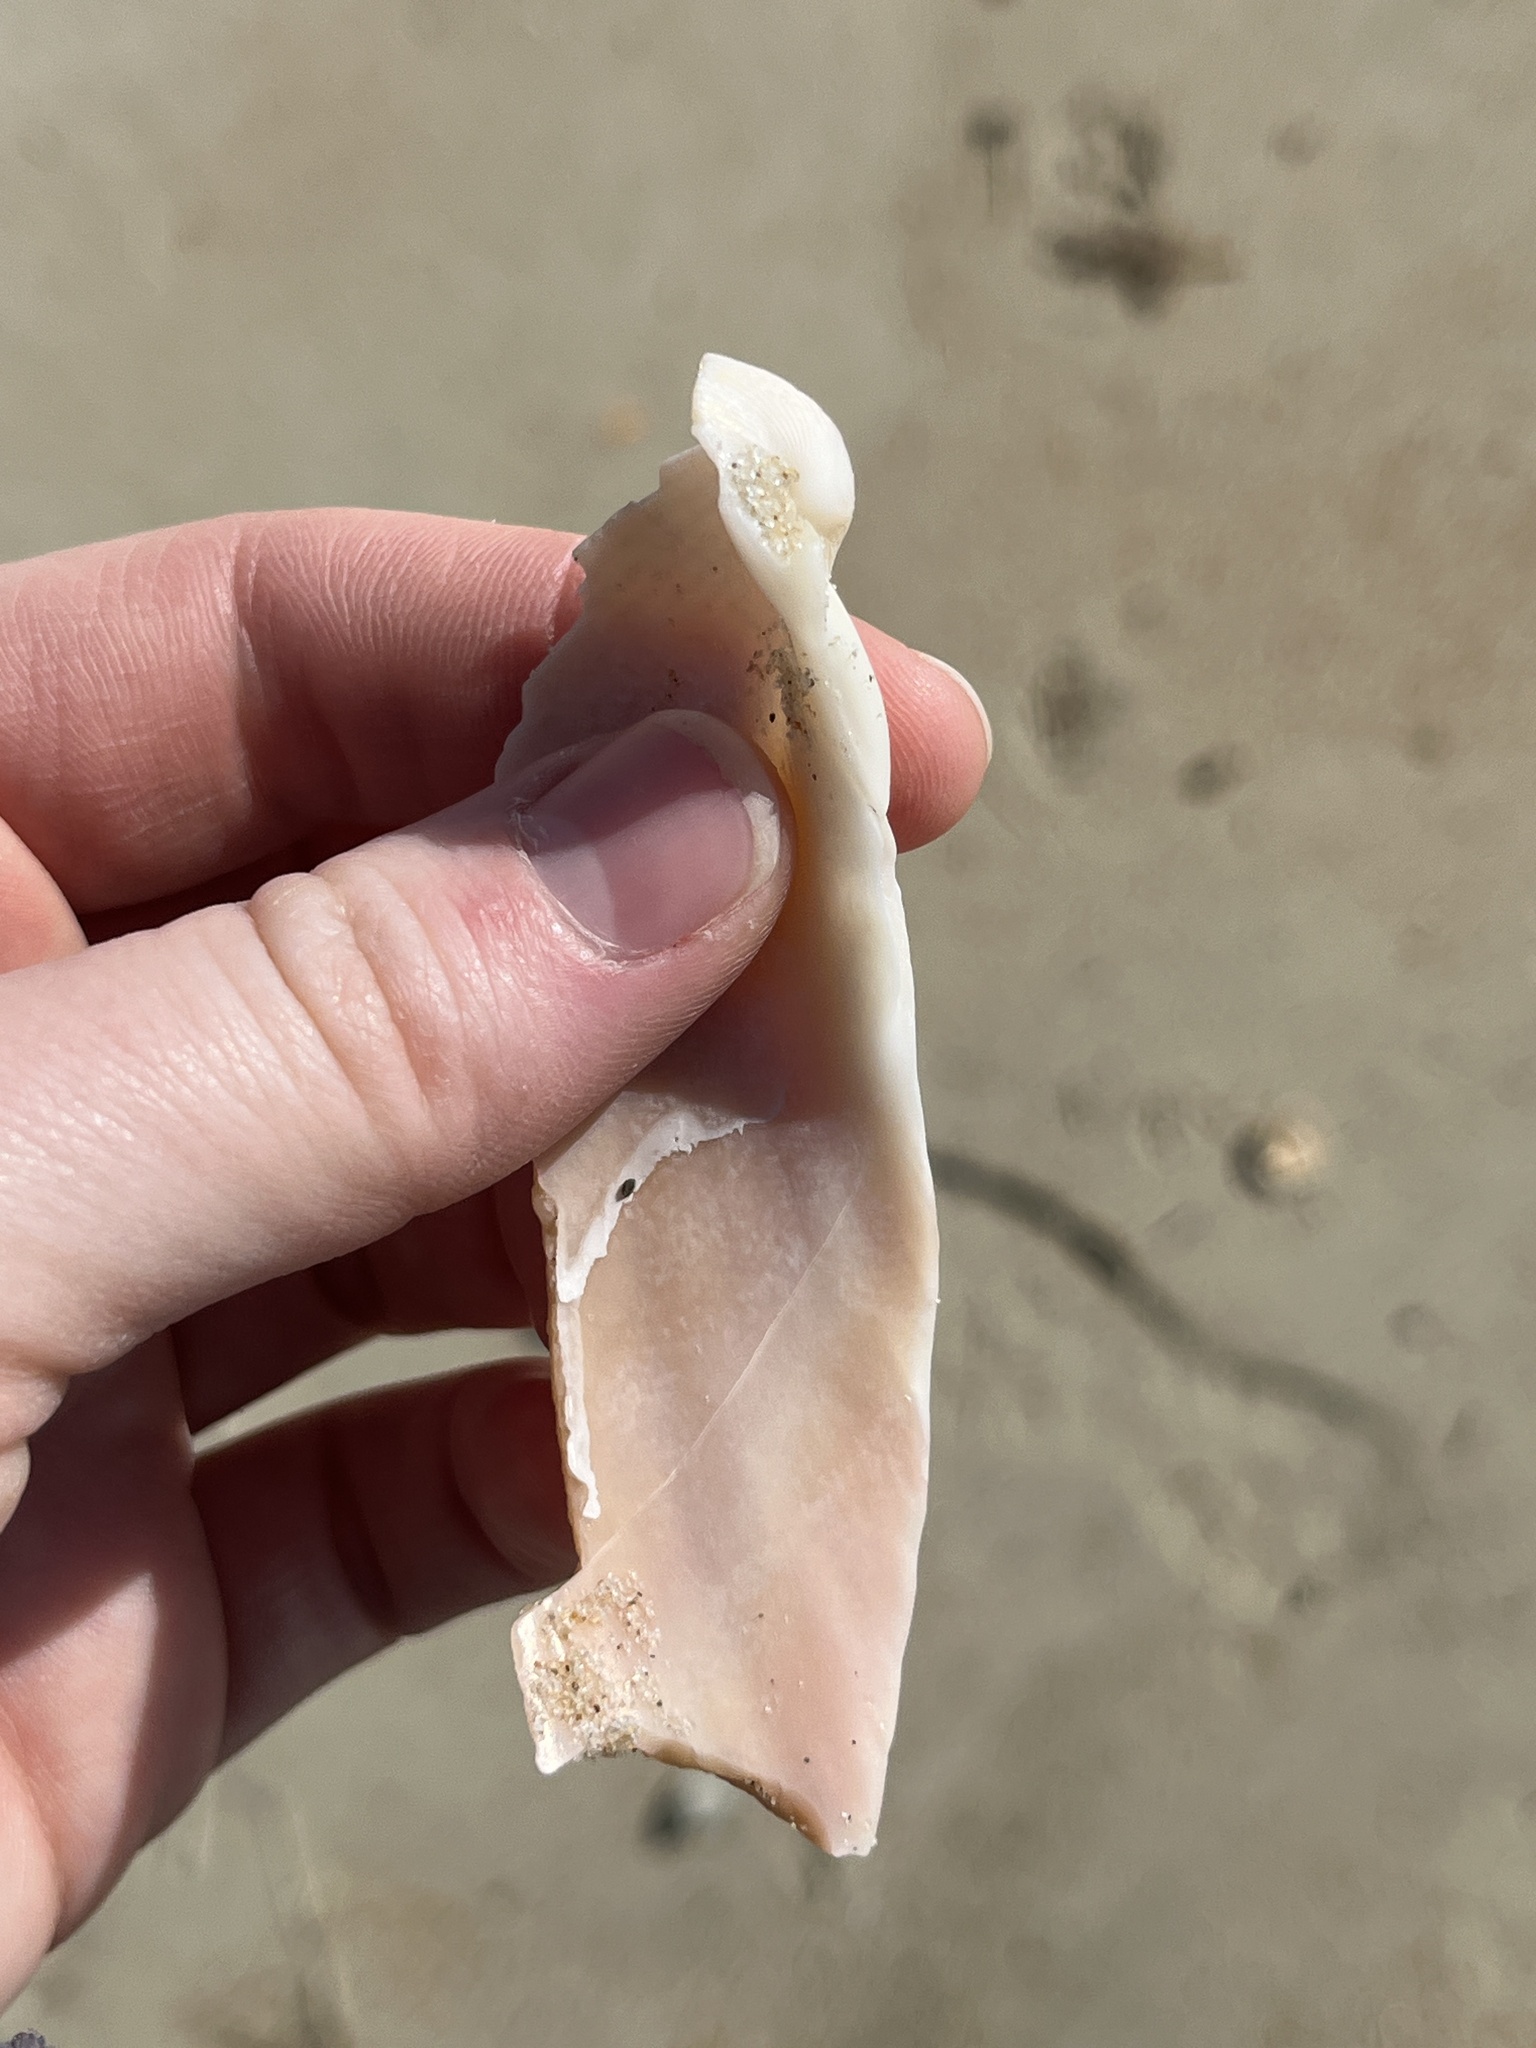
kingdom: Animalia
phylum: Mollusca
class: Bivalvia
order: Cardiida
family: Cardiidae
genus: Dinocardium
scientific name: Dinocardium robustum
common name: Atlantic giant cockle
